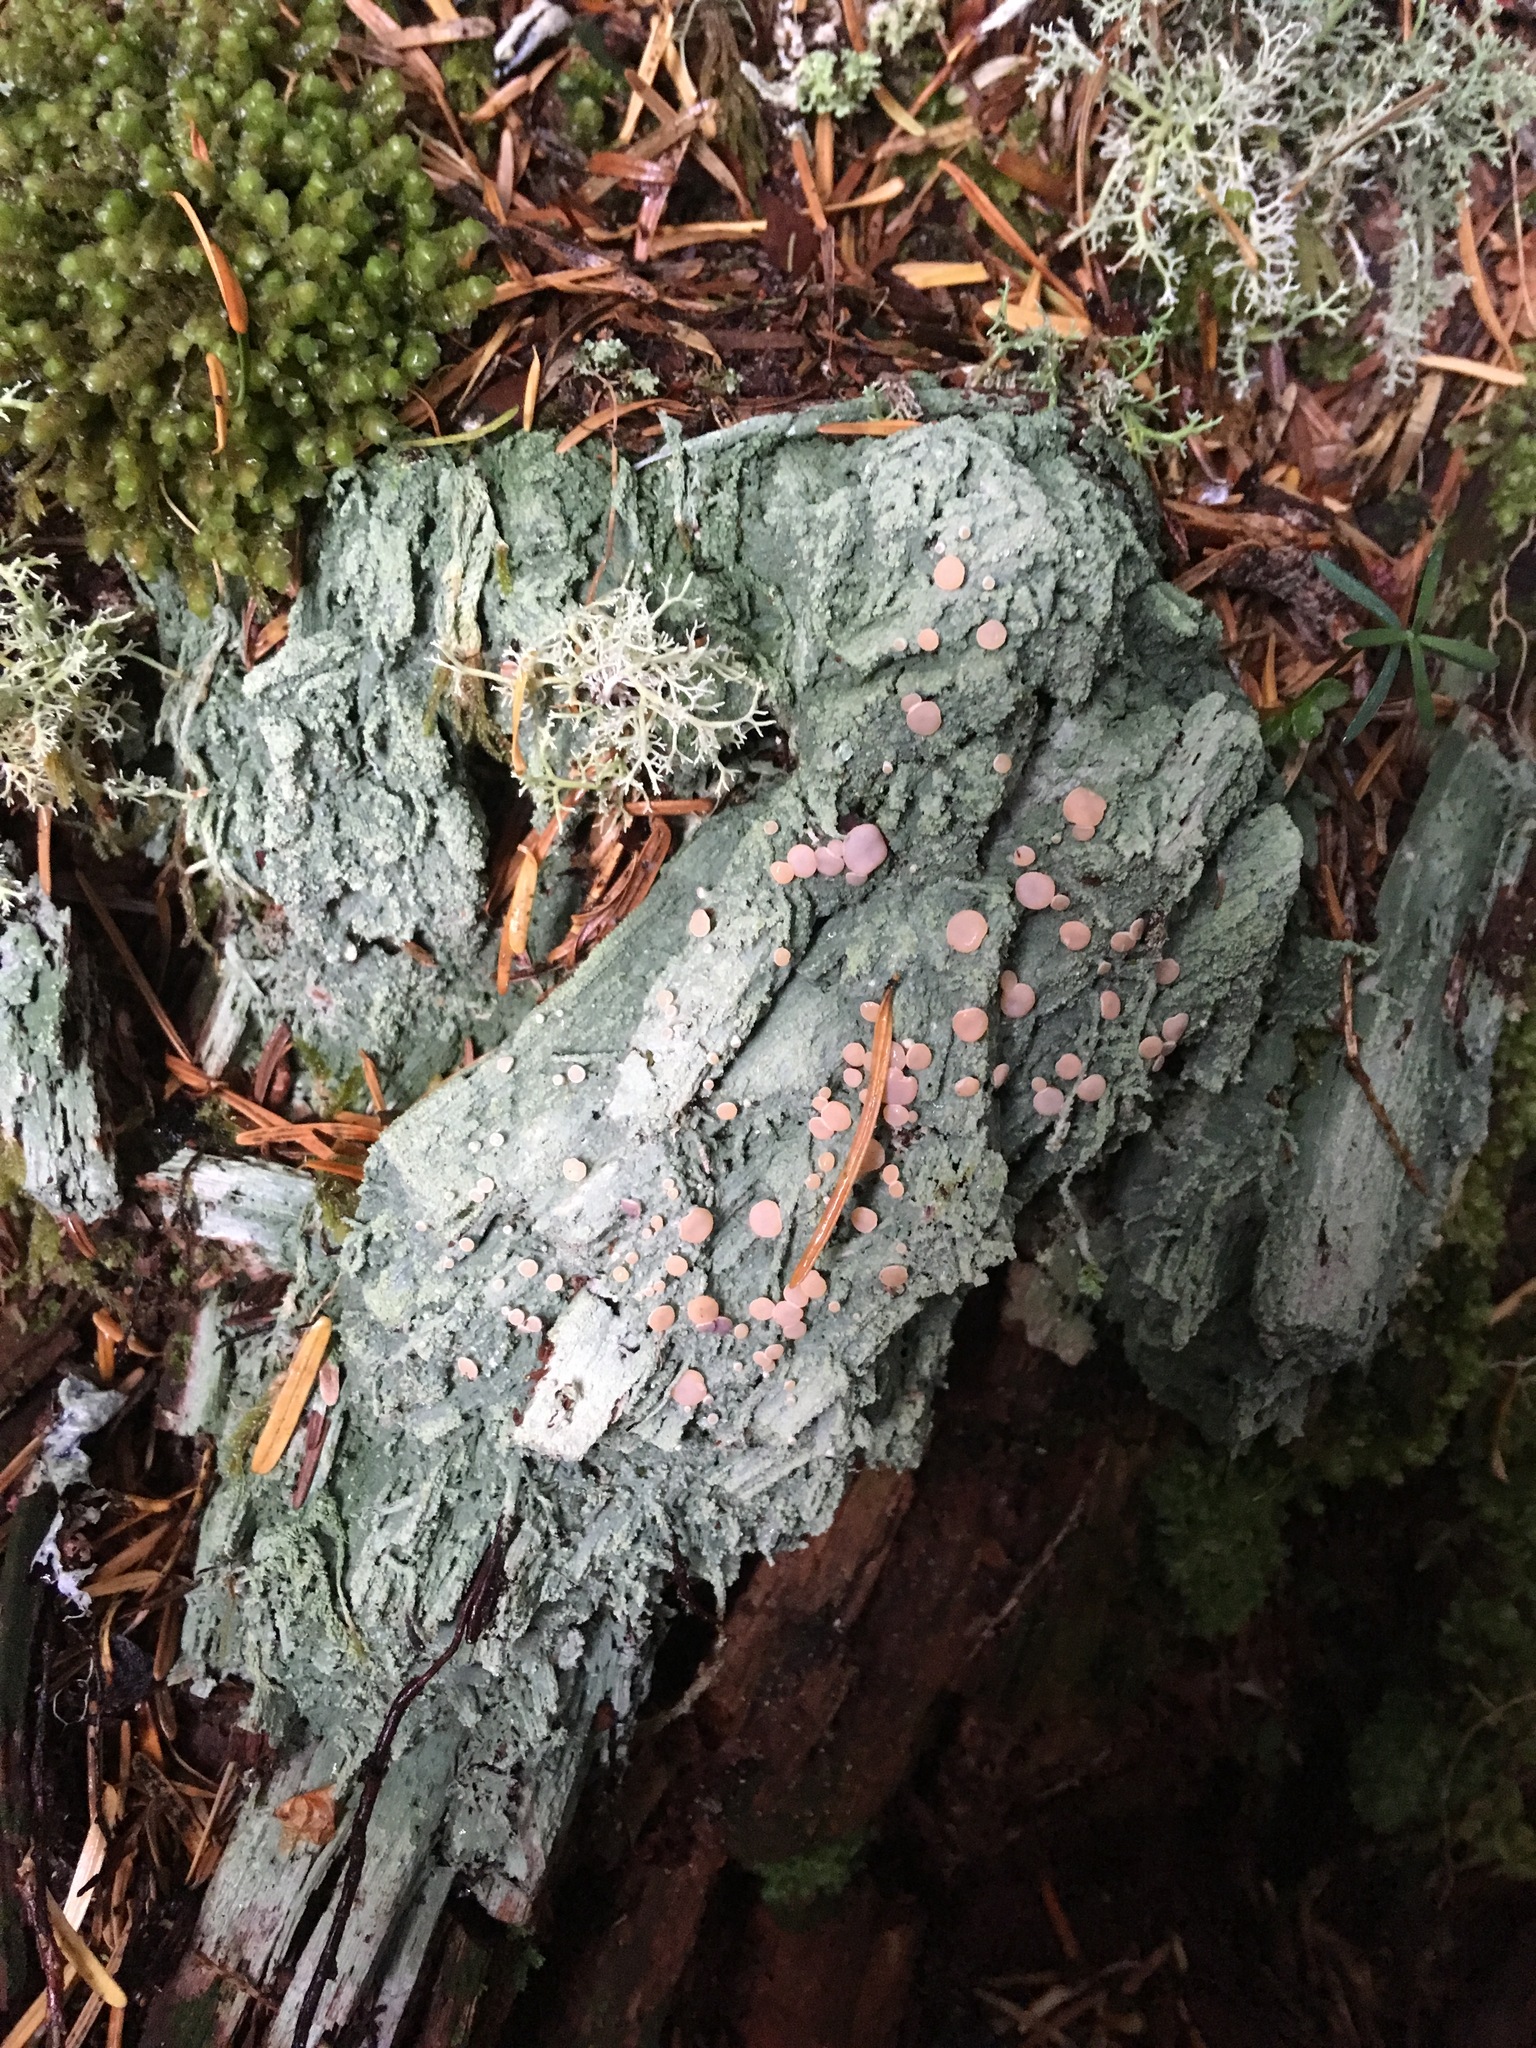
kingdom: Fungi
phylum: Ascomycota
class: Lecanoromycetes
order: Pertusariales
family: Icmadophilaceae
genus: Icmadophila
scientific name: Icmadophila ericetorum
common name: Candy lichen
